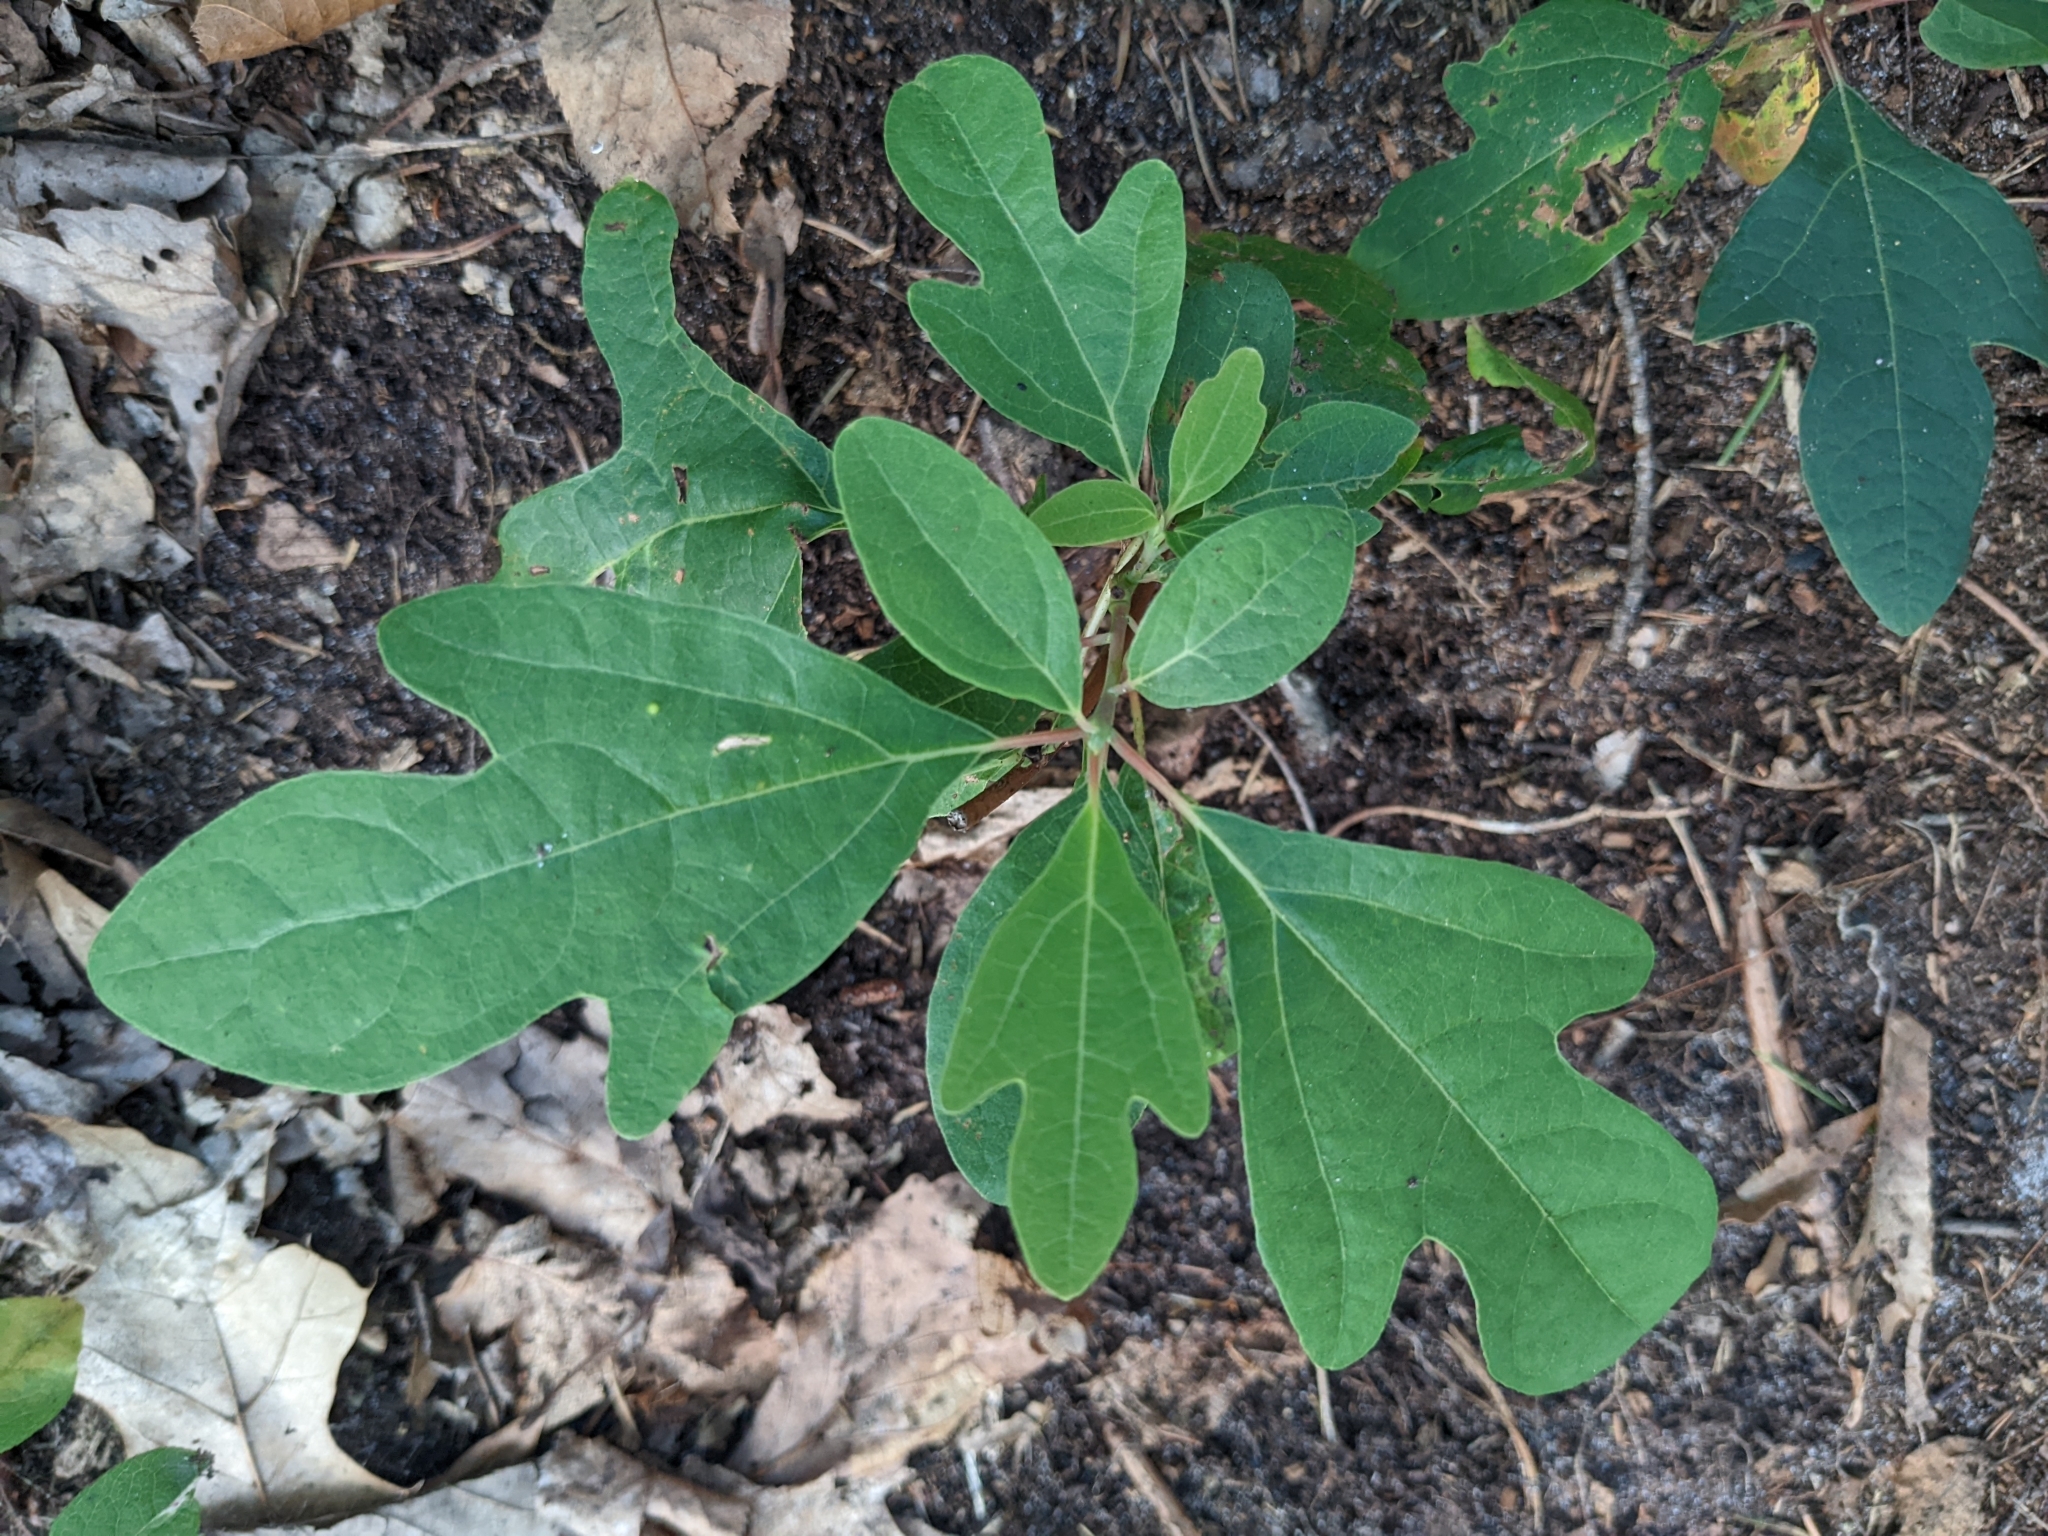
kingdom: Plantae
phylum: Tracheophyta
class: Magnoliopsida
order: Laurales
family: Lauraceae
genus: Sassafras
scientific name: Sassafras albidum
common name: Sassafras
